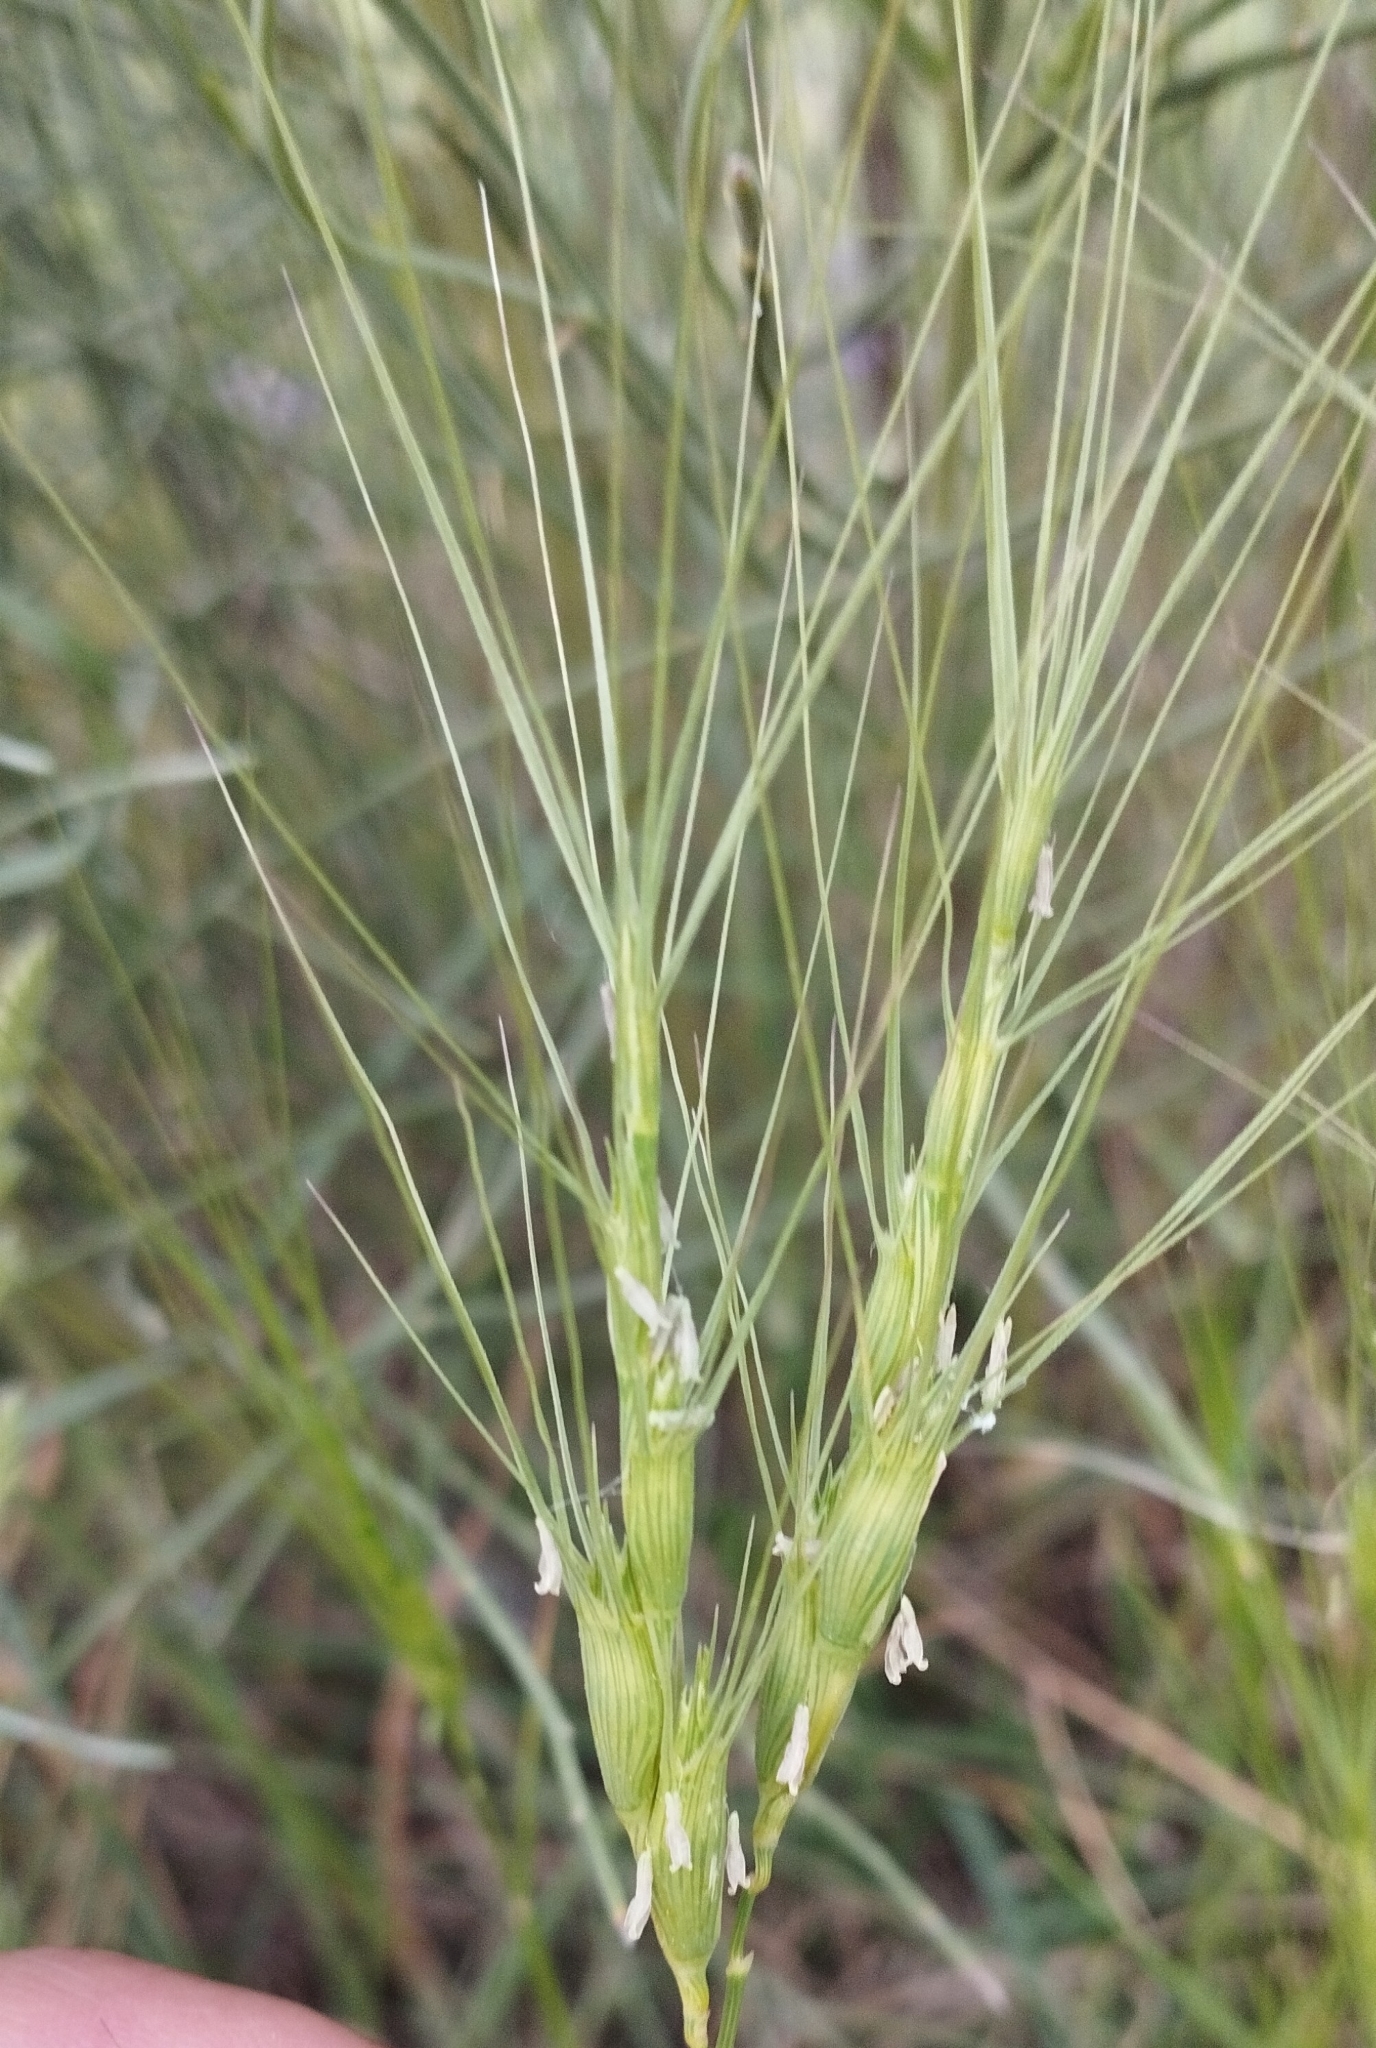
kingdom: Plantae
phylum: Tracheophyta
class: Liliopsida
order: Poales
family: Poaceae
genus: Aegilops
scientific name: Aegilops triuncialis
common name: Barb goat grass
